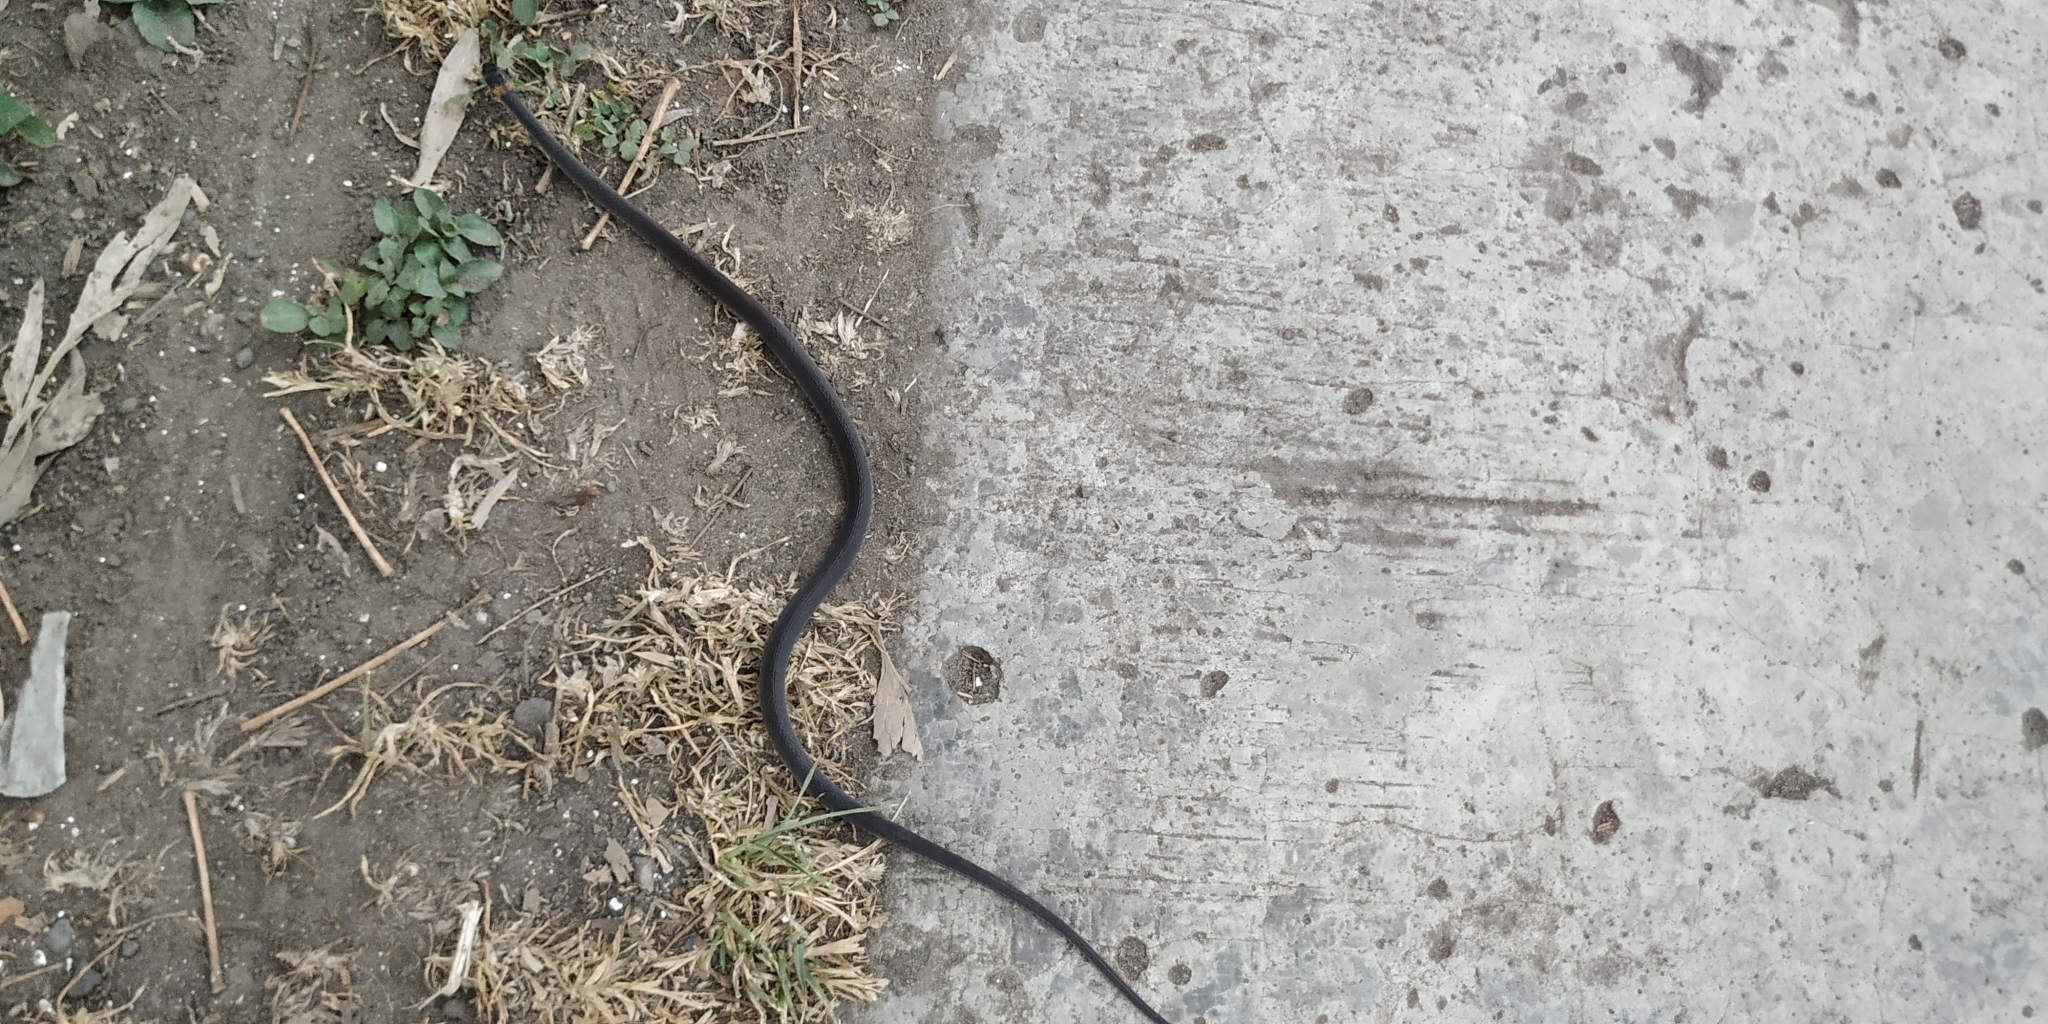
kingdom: Animalia
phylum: Chordata
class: Squamata
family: Colubridae
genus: Ninia
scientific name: Ninia diademata
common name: Ringneck coffee snake
